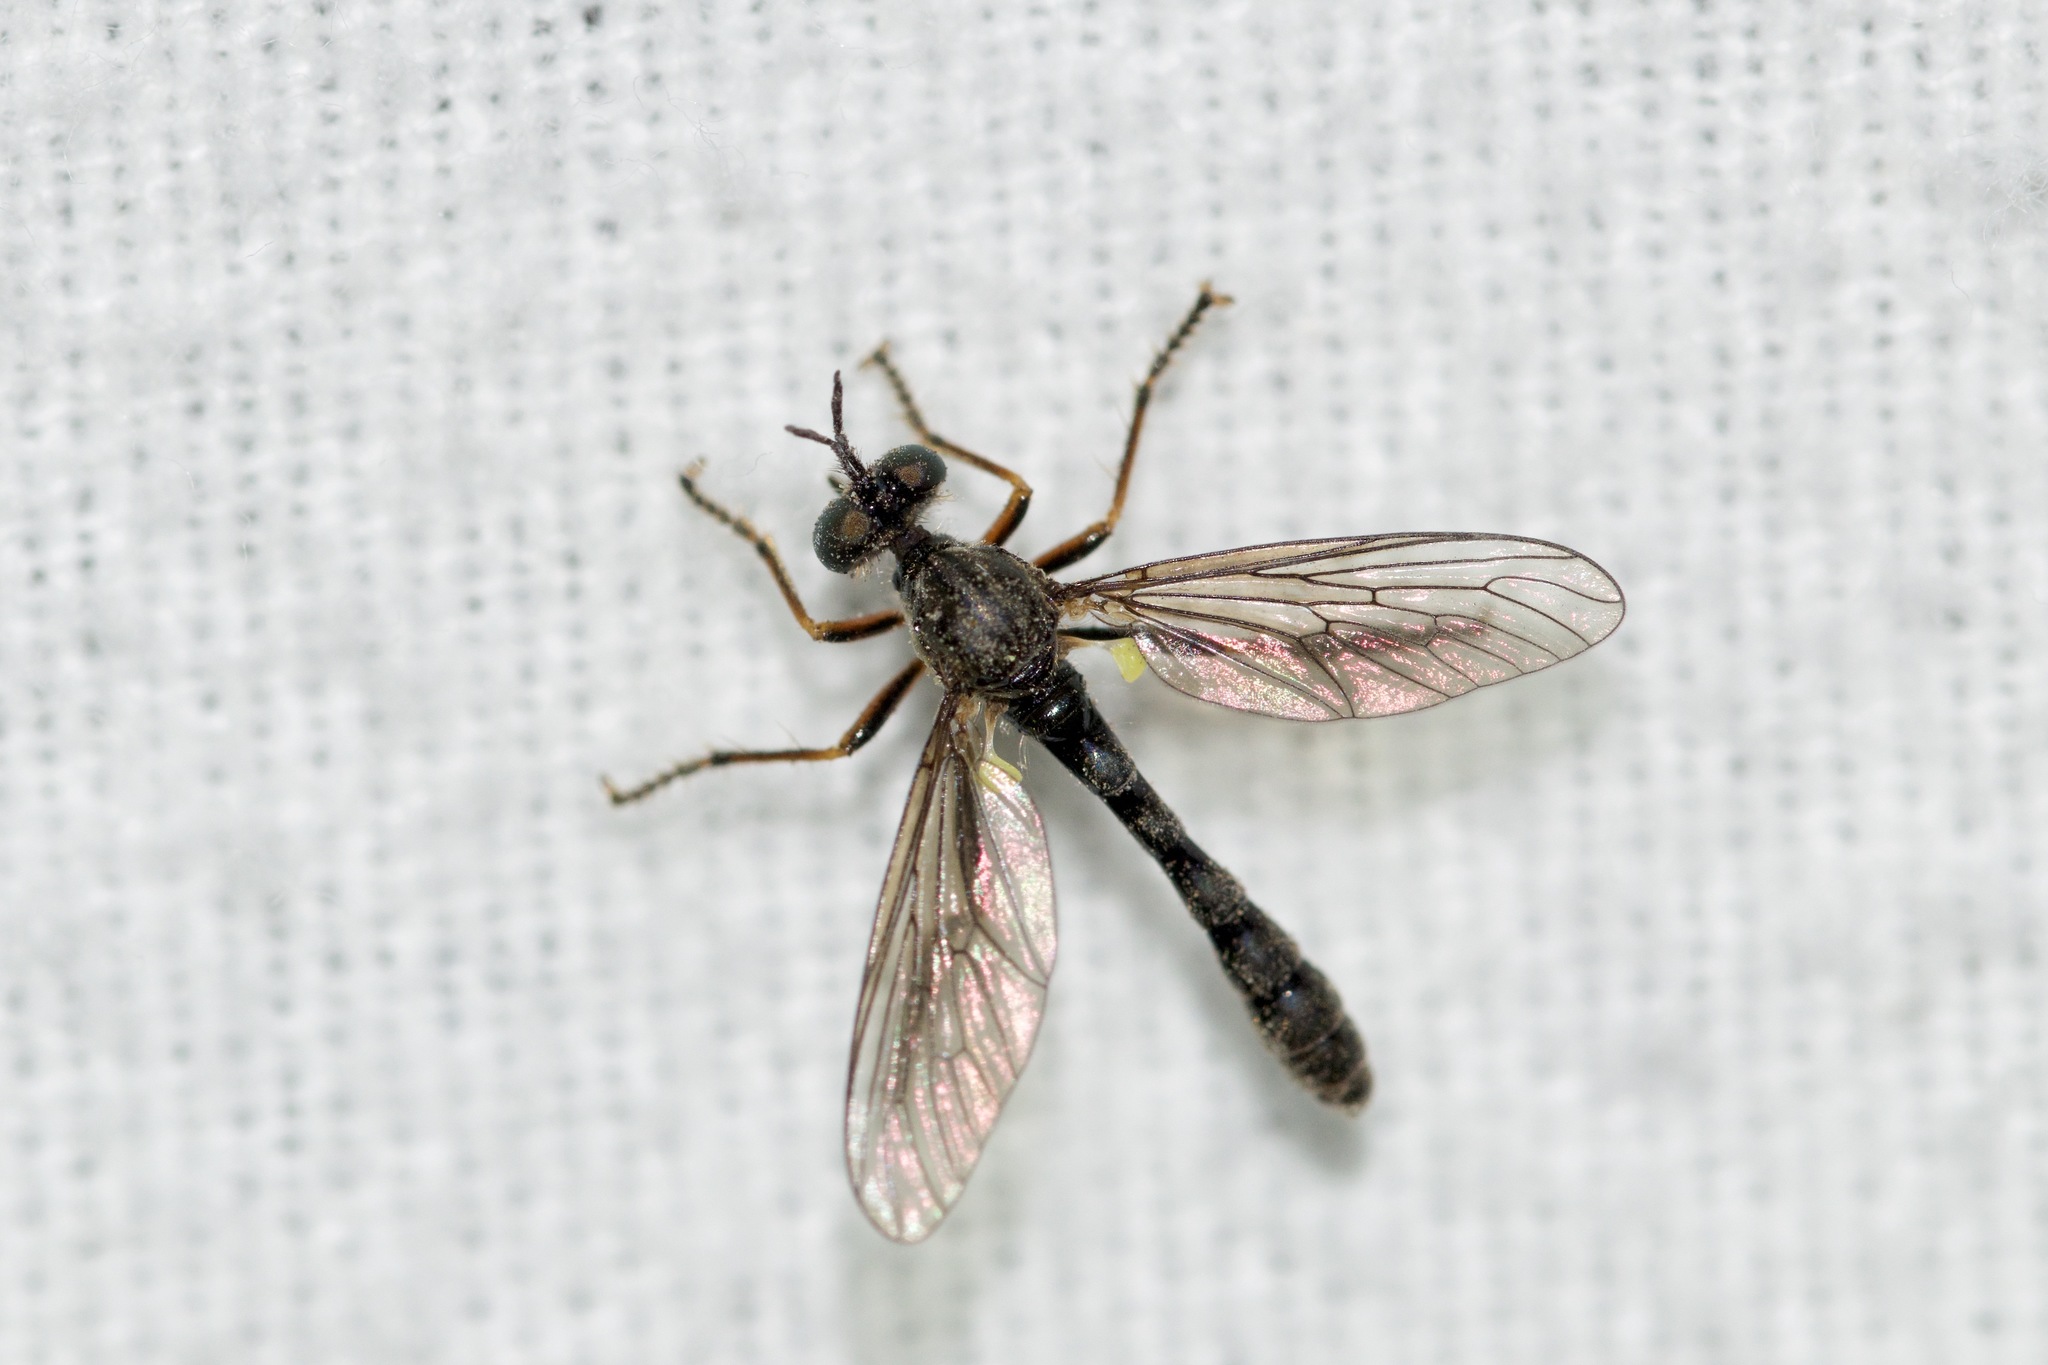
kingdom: Animalia
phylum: Arthropoda
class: Insecta
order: Diptera
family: Asilidae
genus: Dioctria
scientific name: Dioctria hyalipennis
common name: Stripe-legged robberfly
